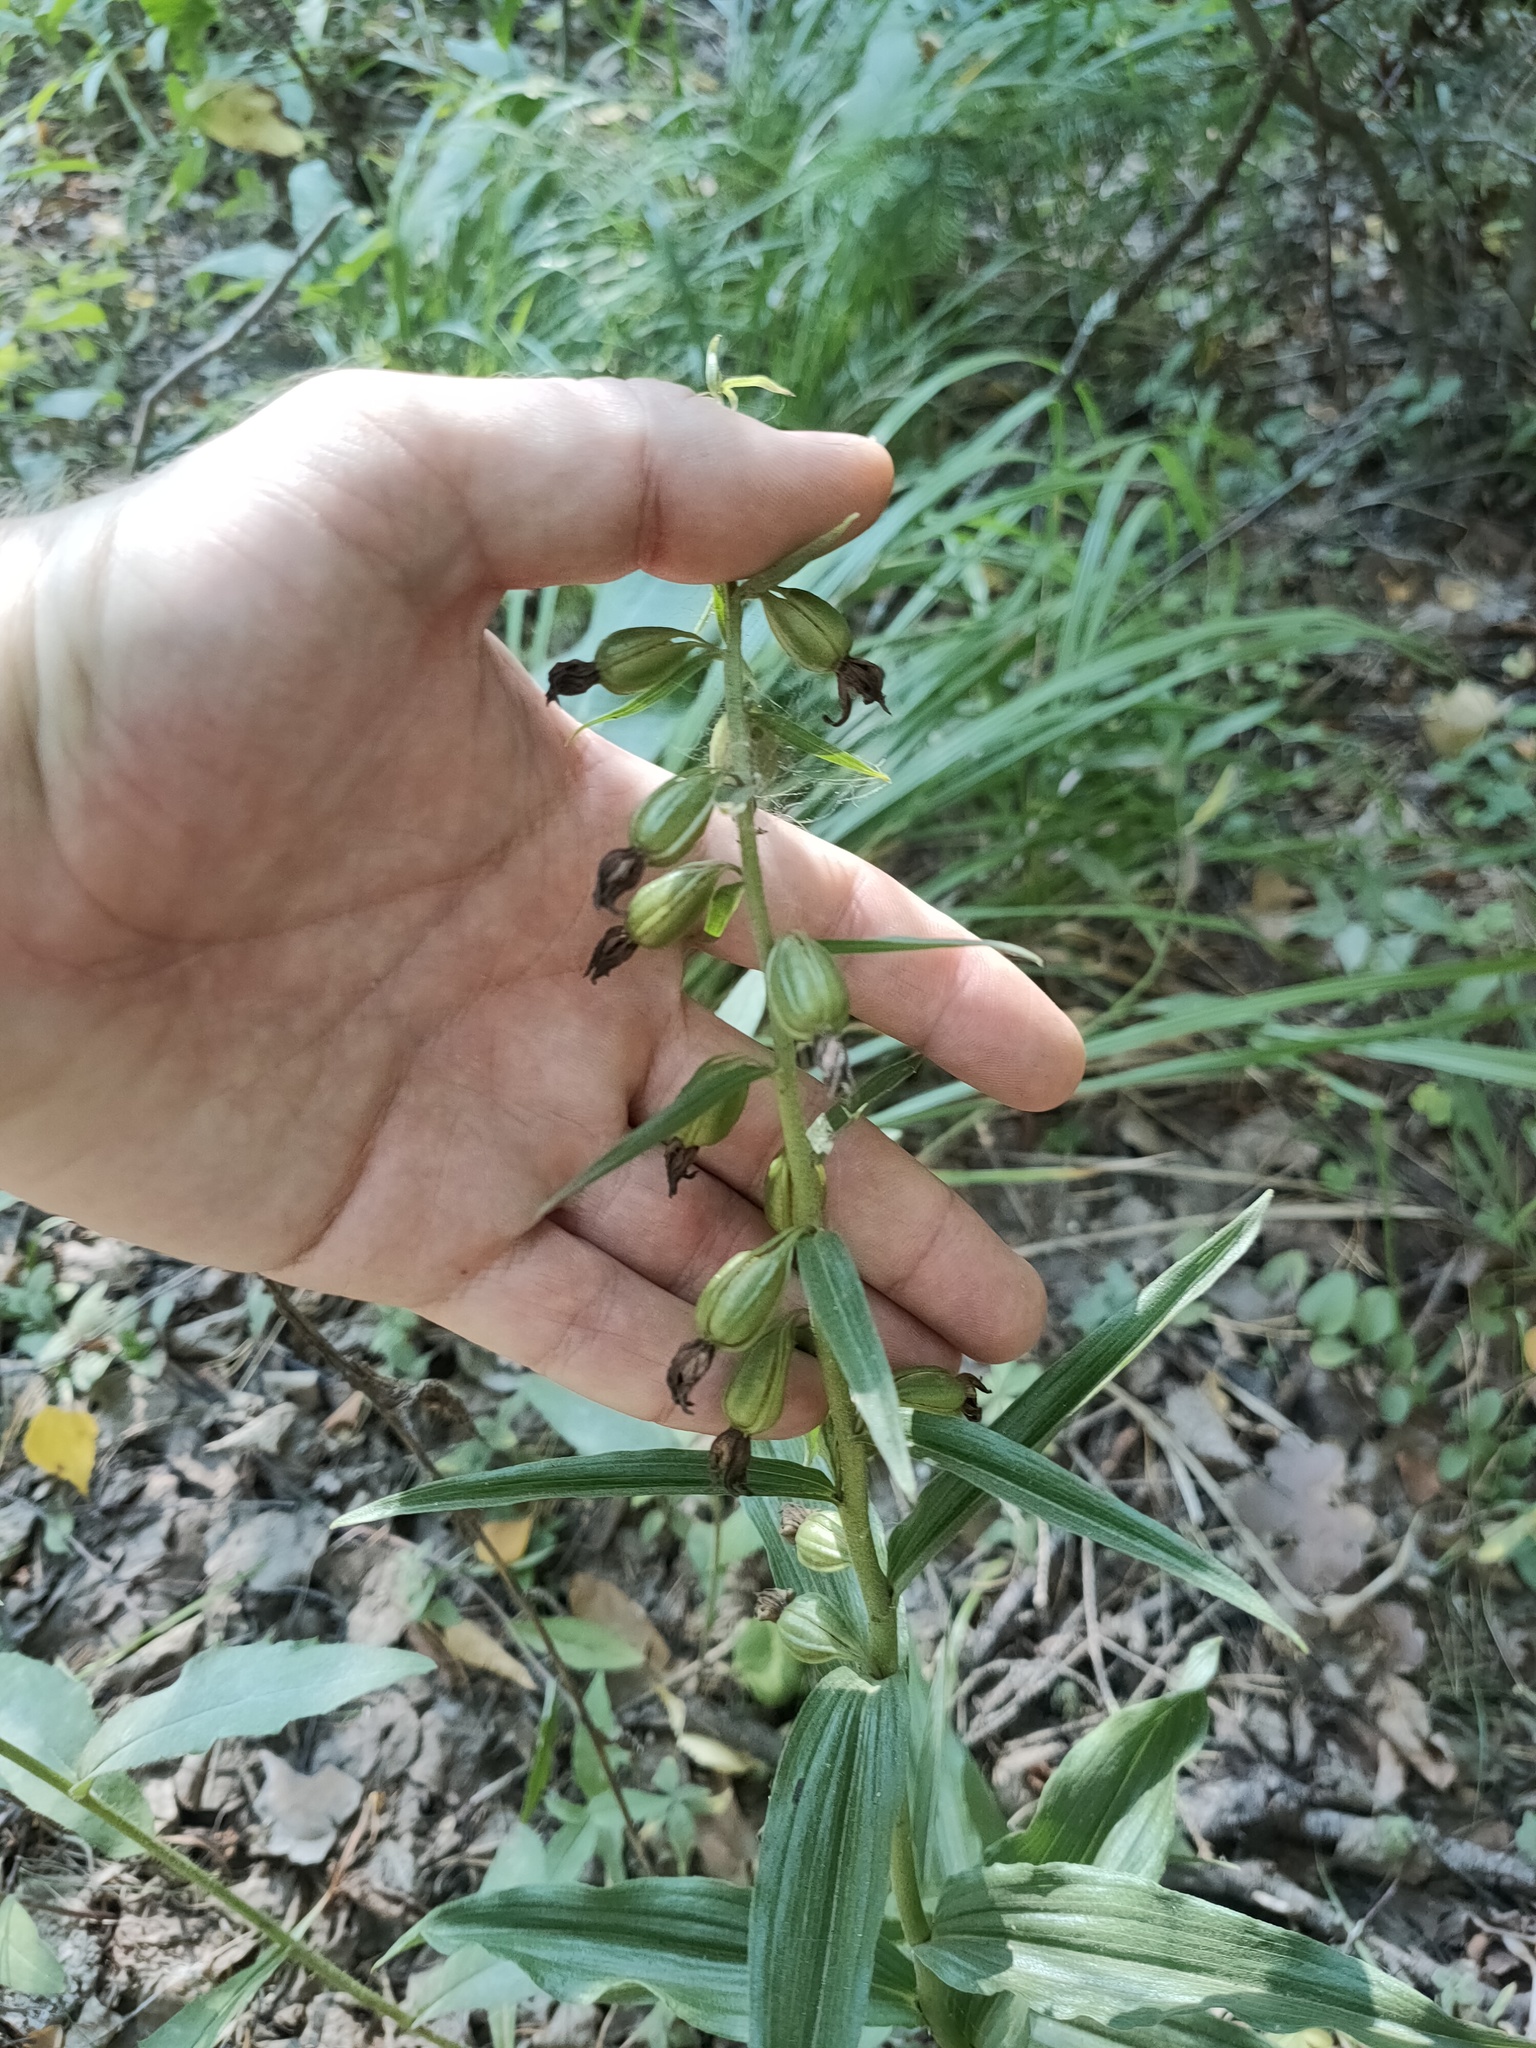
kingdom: Plantae
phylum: Tracheophyta
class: Liliopsida
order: Asparagales
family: Orchidaceae
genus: Epipactis
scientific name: Epipactis helleborine
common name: Broad-leaved helleborine
